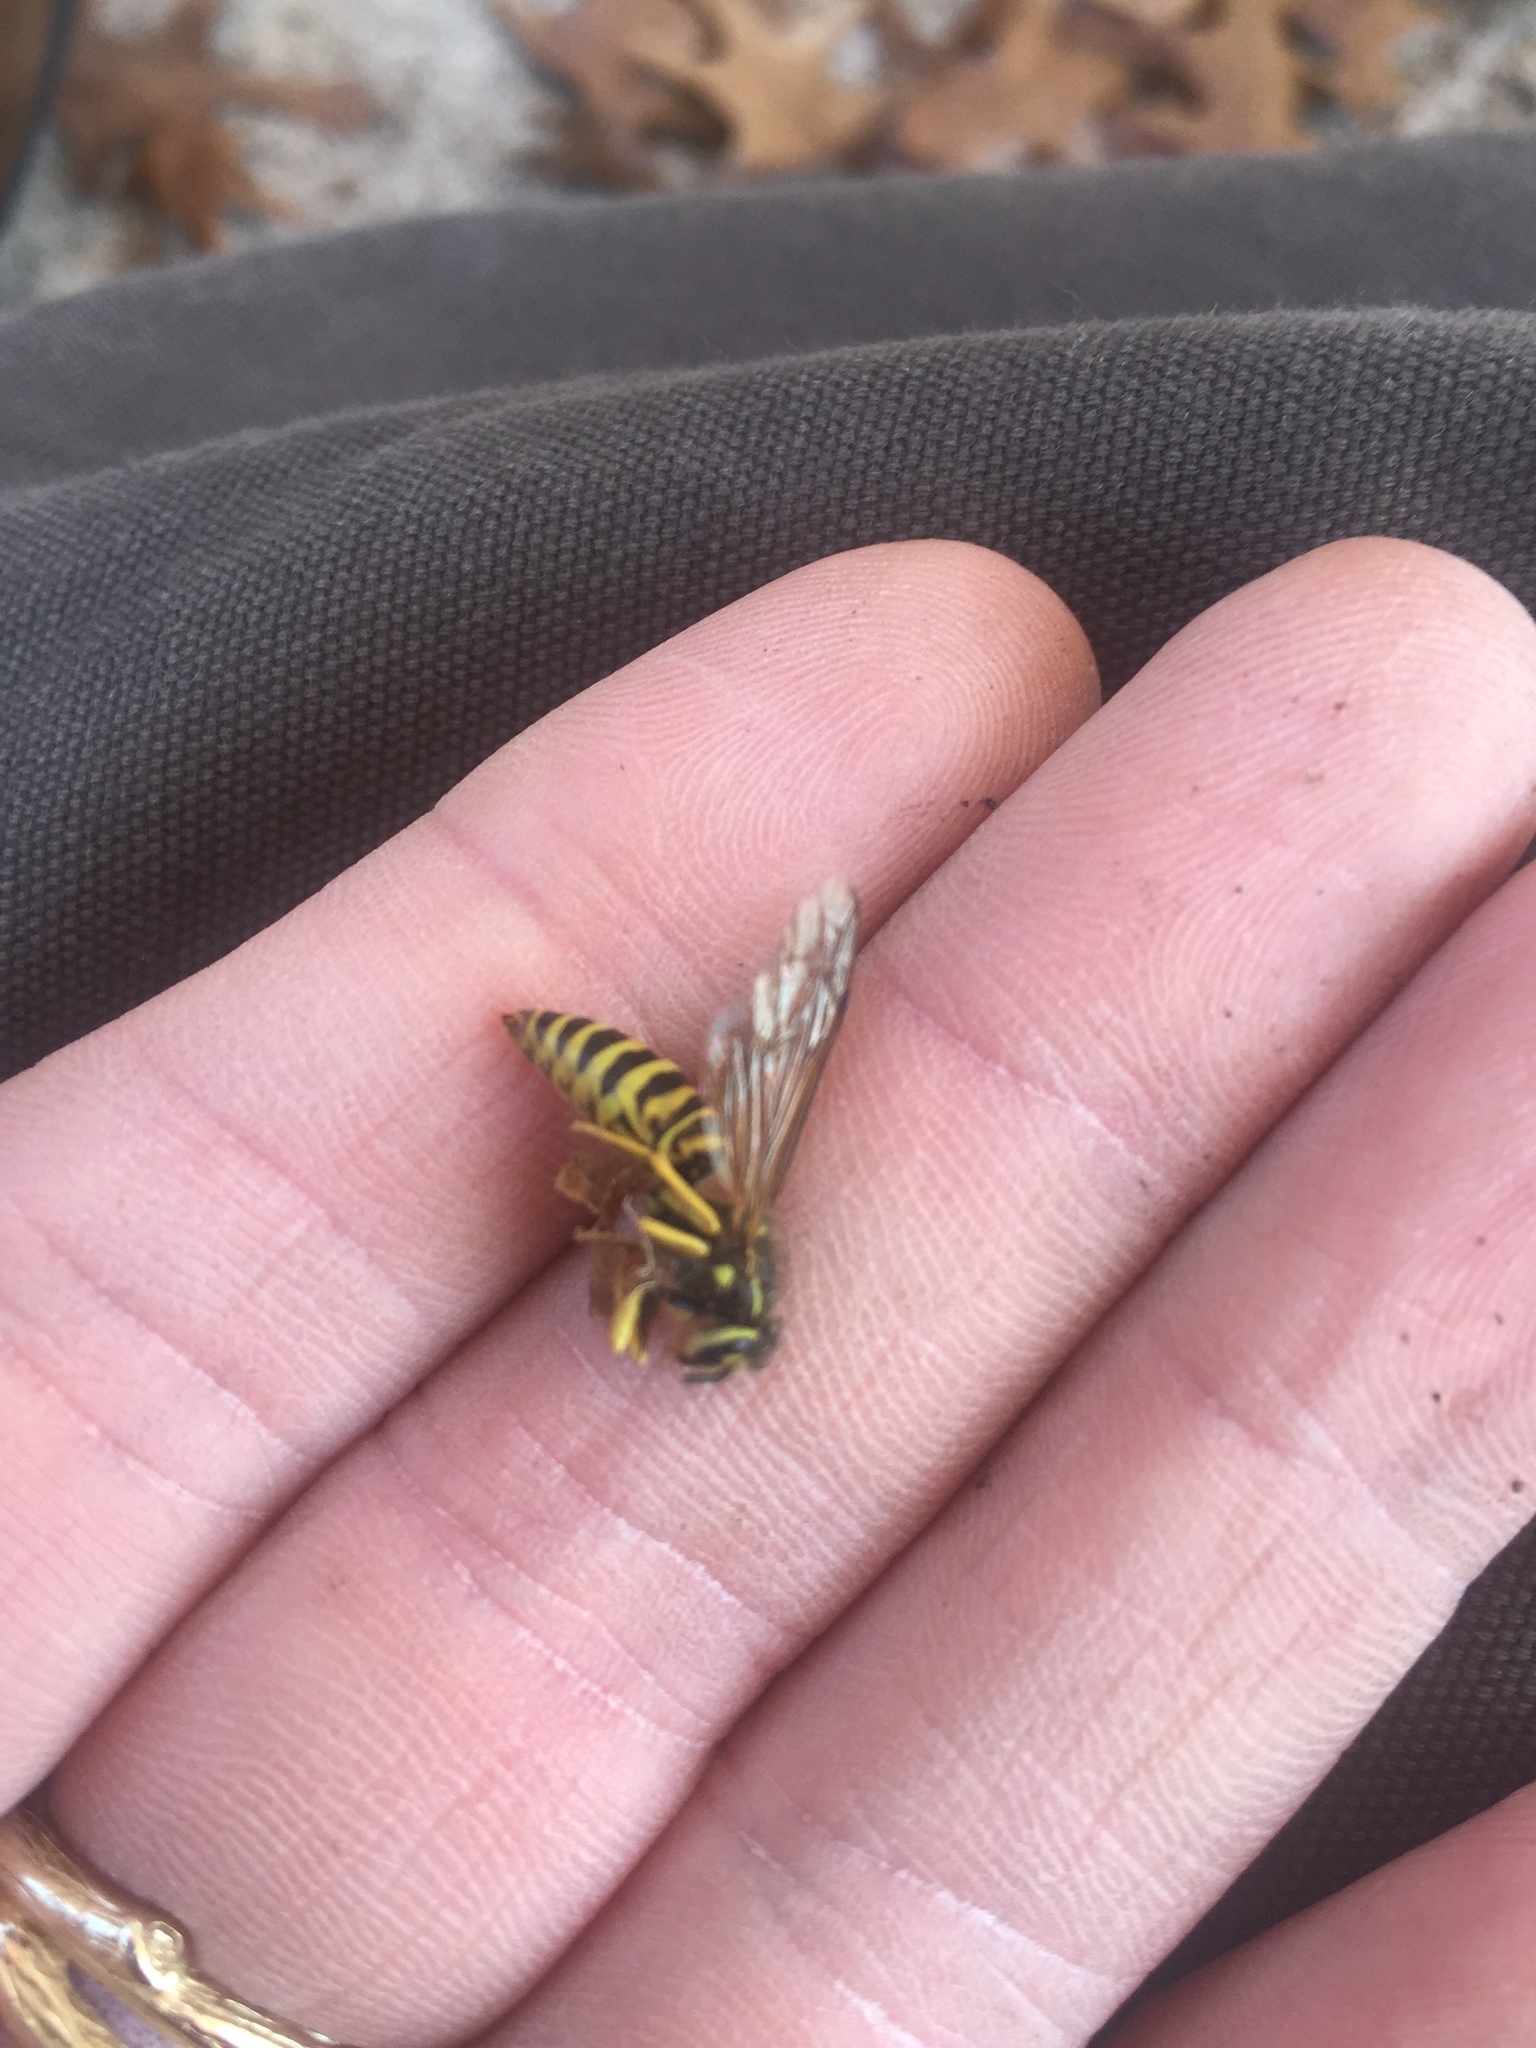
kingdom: Animalia
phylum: Arthropoda
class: Insecta
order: Hymenoptera
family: Vespidae
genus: Vespula
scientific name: Vespula squamosa
